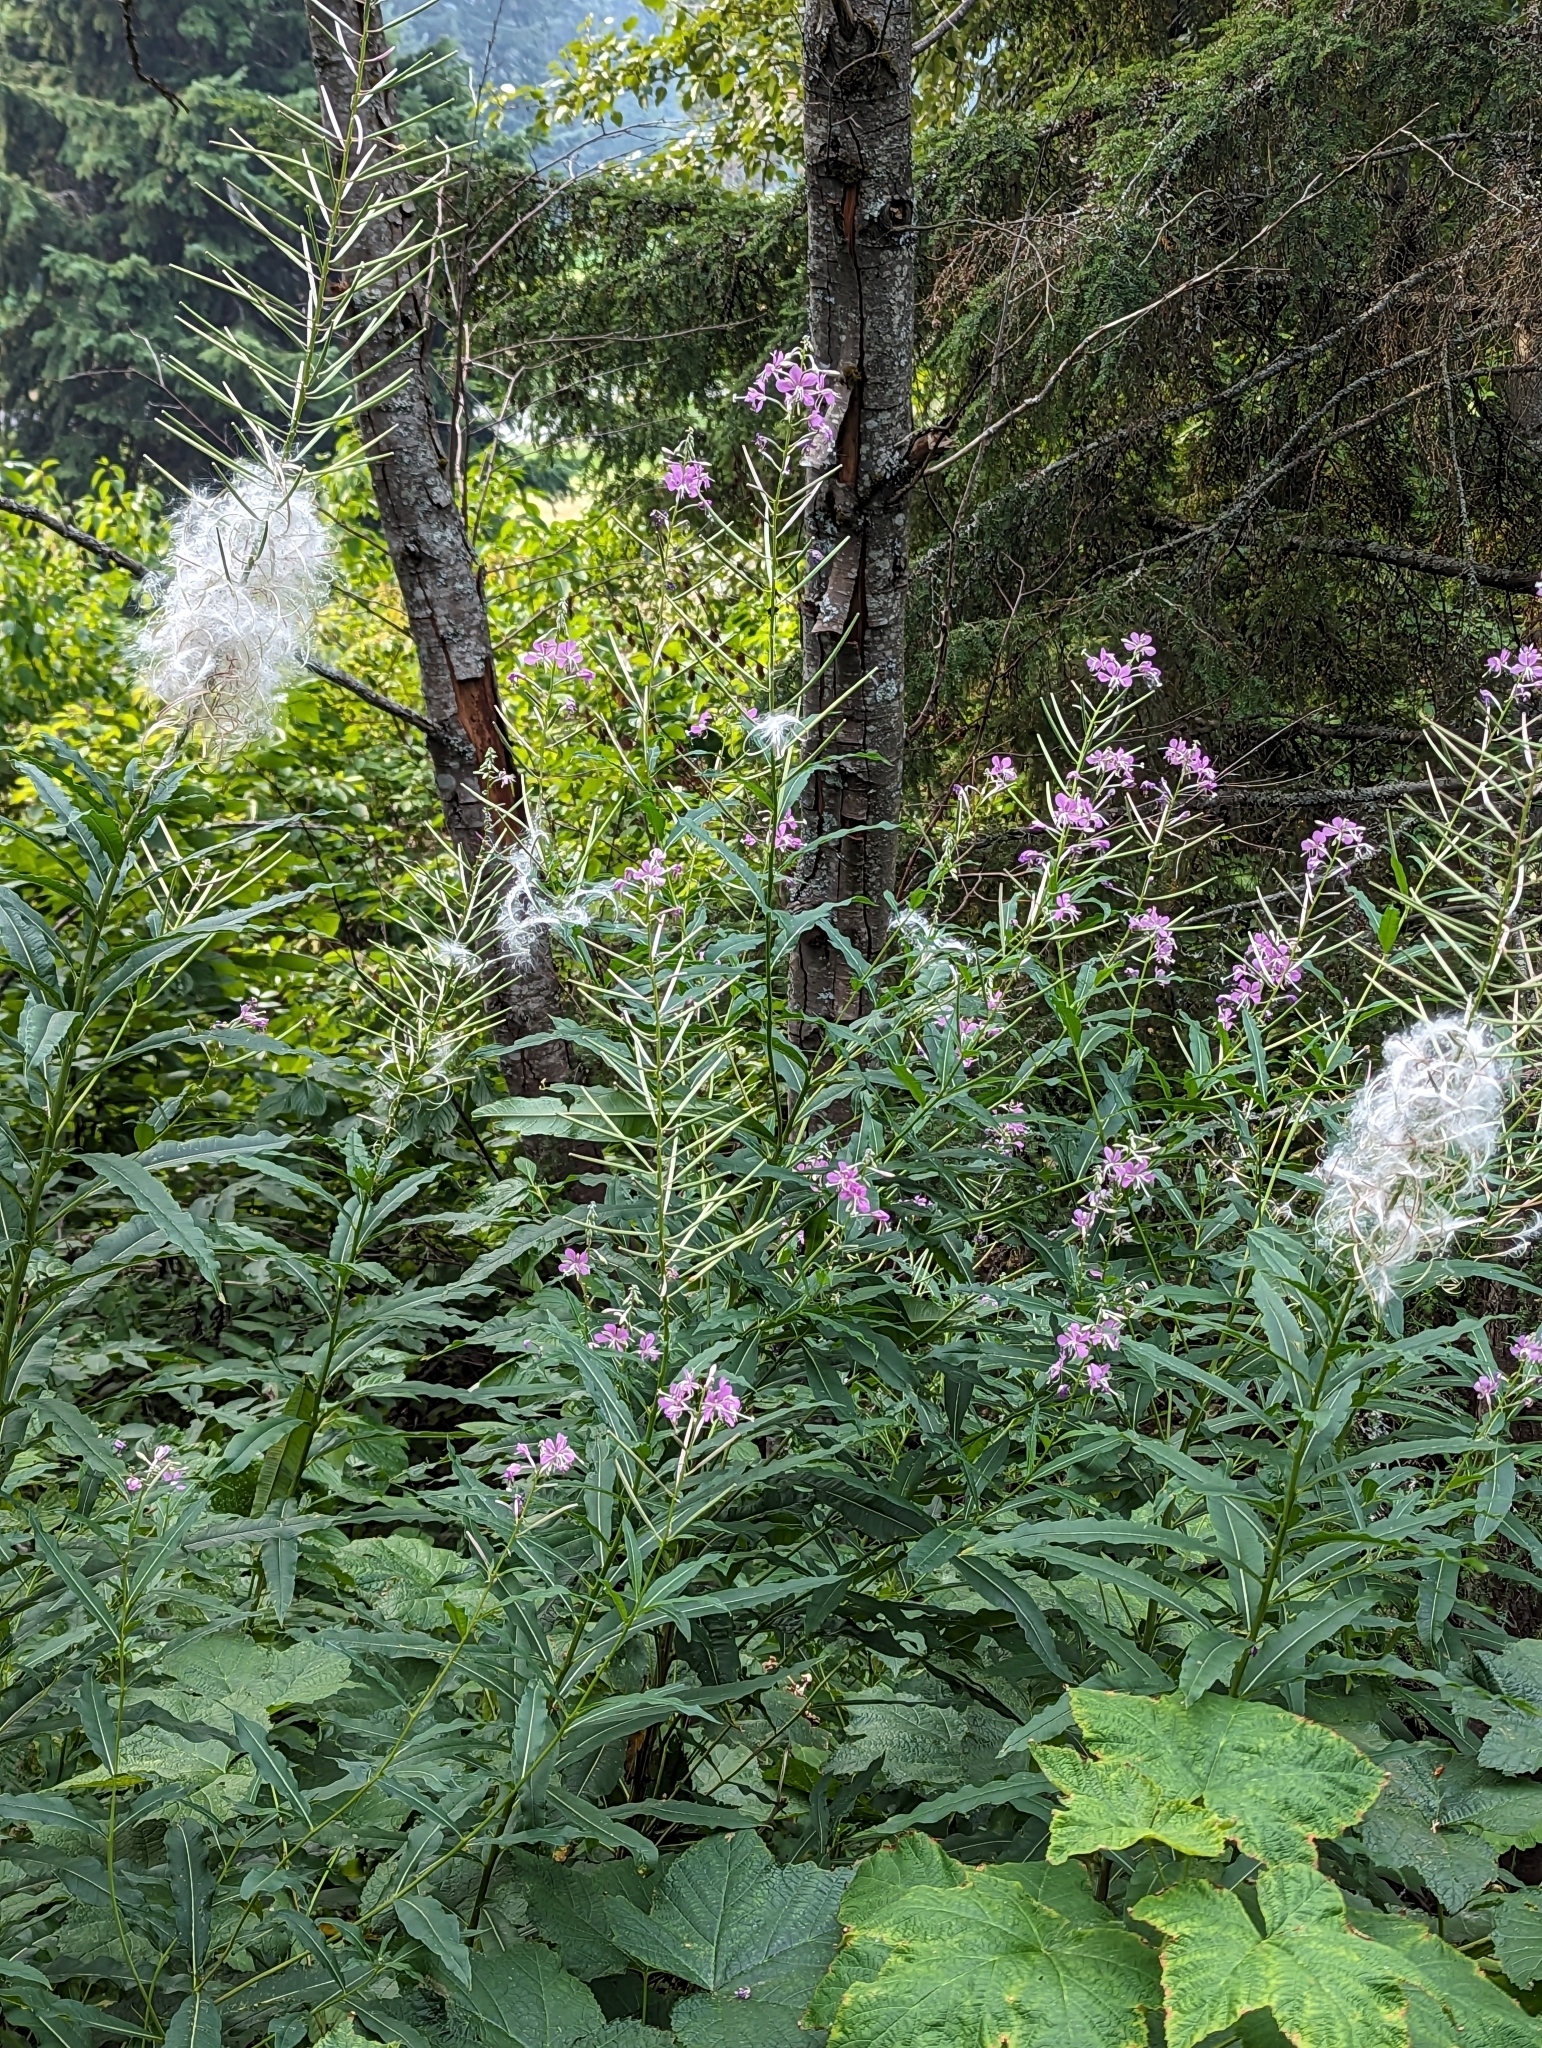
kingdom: Plantae
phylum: Tracheophyta
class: Magnoliopsida
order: Myrtales
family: Onagraceae
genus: Chamaenerion
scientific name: Chamaenerion angustifolium
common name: Fireweed
